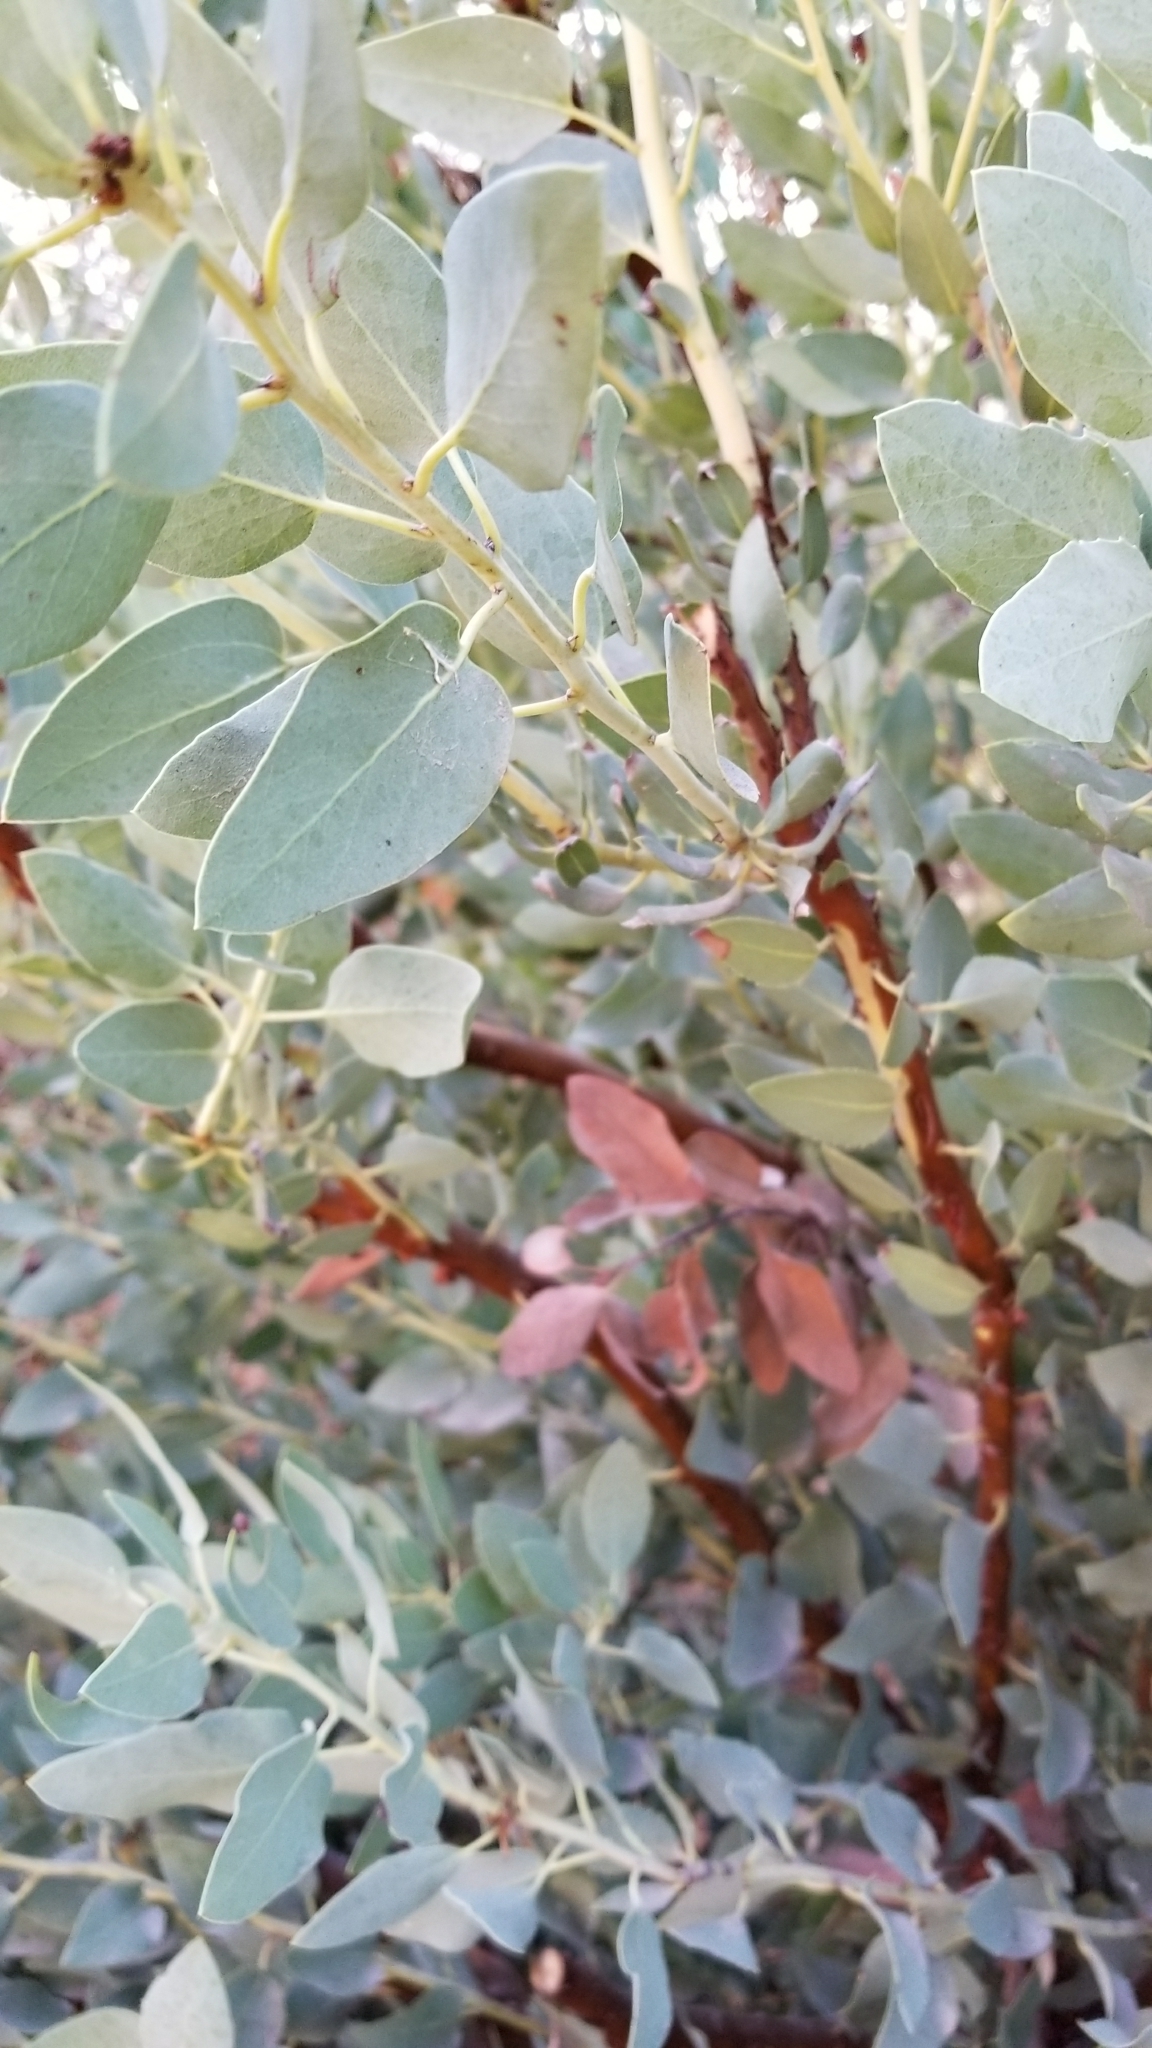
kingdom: Plantae
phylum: Tracheophyta
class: Magnoliopsida
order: Ericales
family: Ericaceae
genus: Arctostaphylos
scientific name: Arctostaphylos glauca
